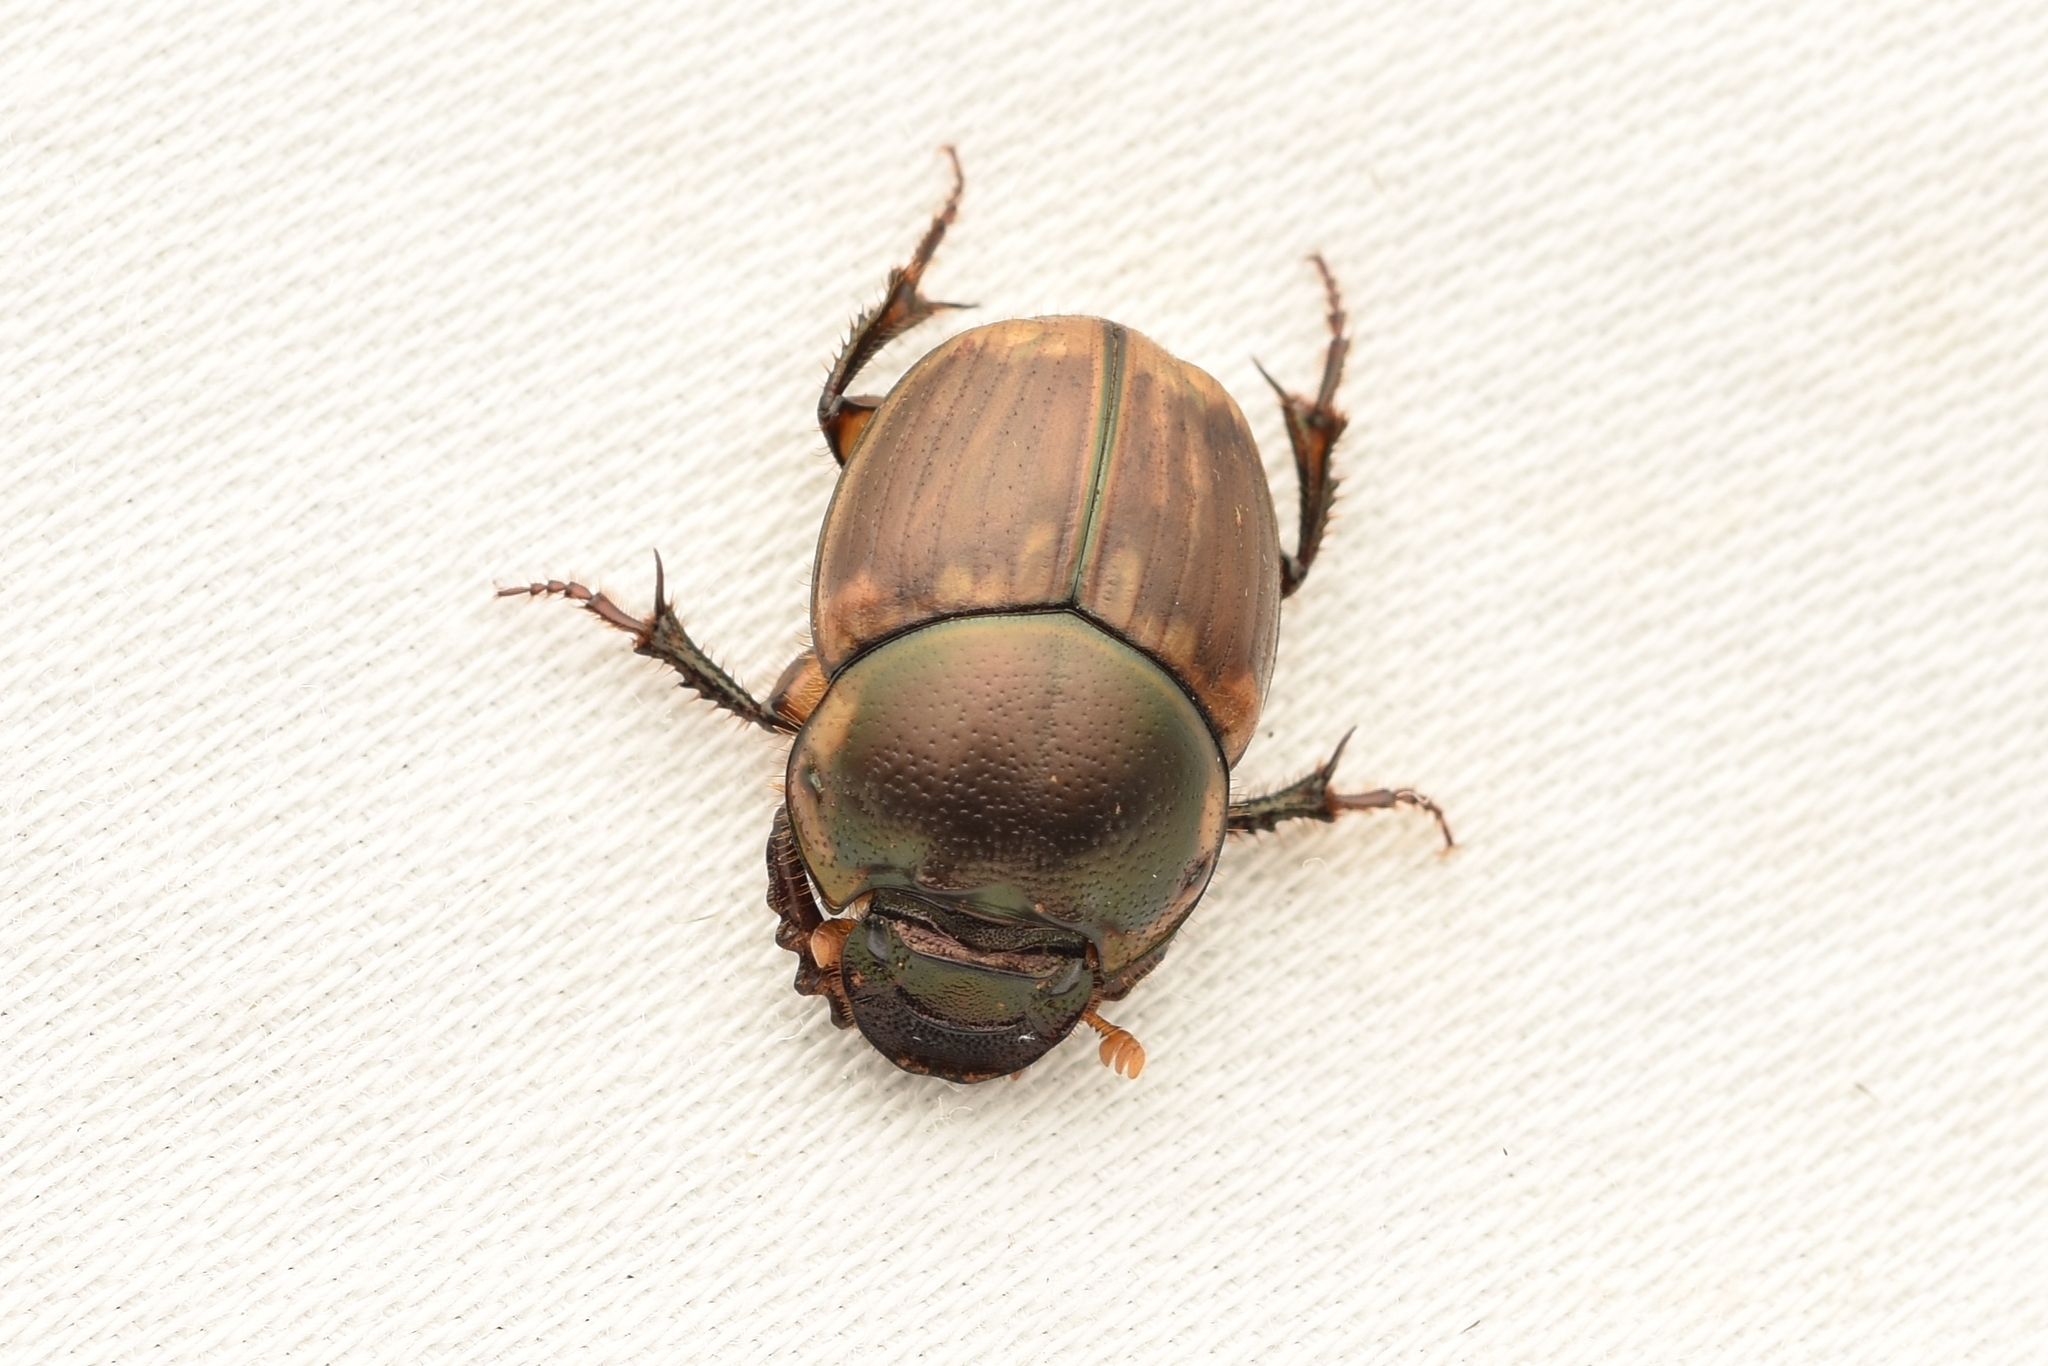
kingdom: Animalia
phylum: Arthropoda
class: Insecta
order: Coleoptera
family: Scarabaeidae
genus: Digitonthophagus
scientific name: Digitonthophagus gazella
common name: Brown dung beetle
